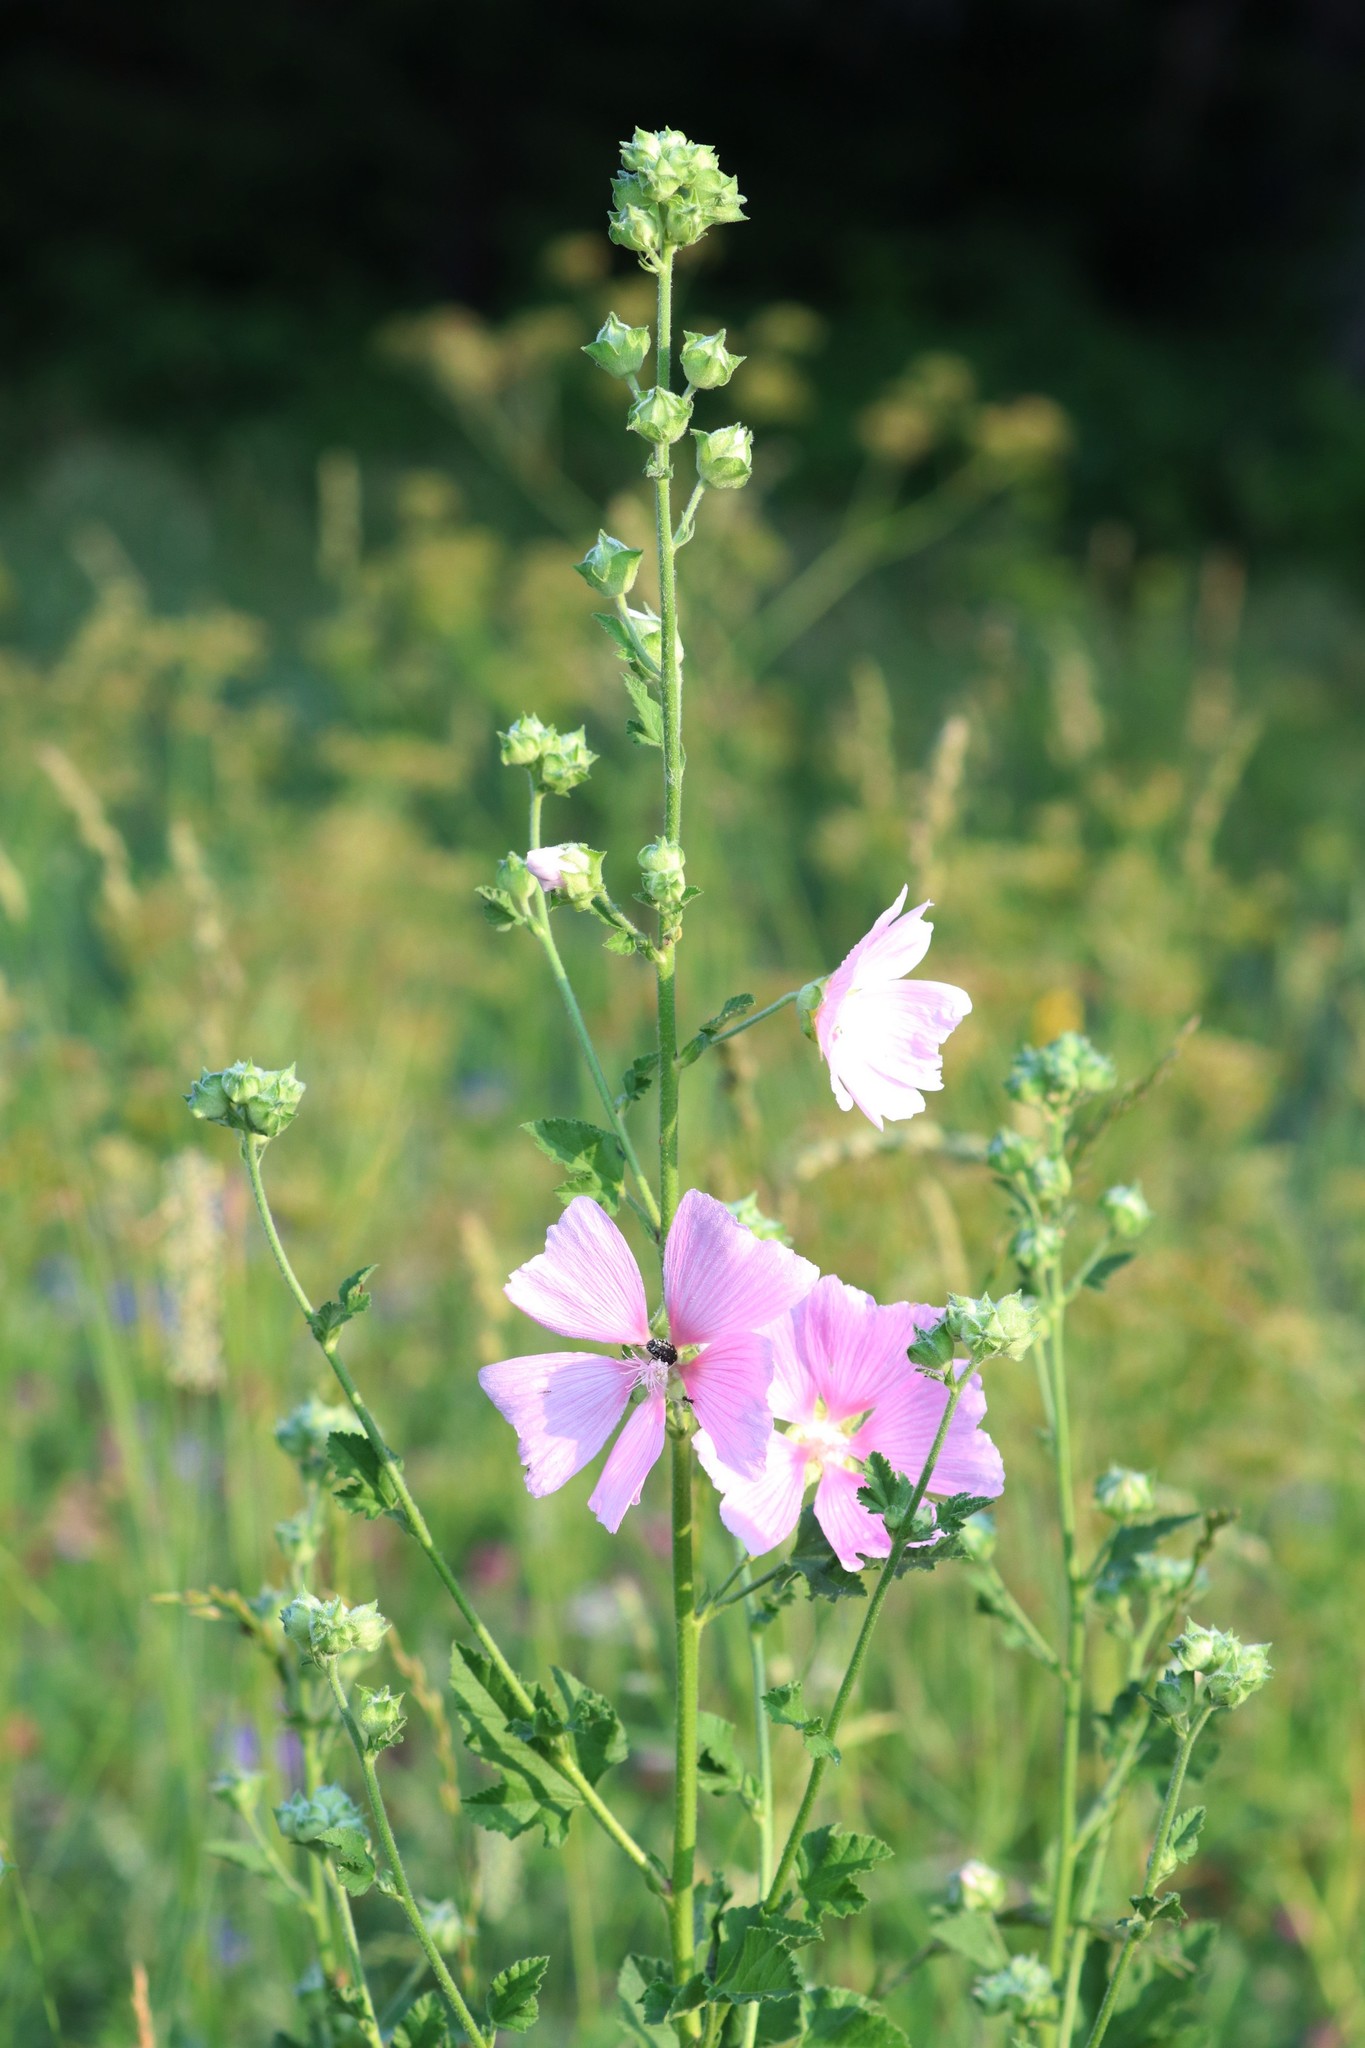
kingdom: Plantae
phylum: Tracheophyta
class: Magnoliopsida
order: Malvales
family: Malvaceae
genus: Malva
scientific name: Malva thuringiaca
